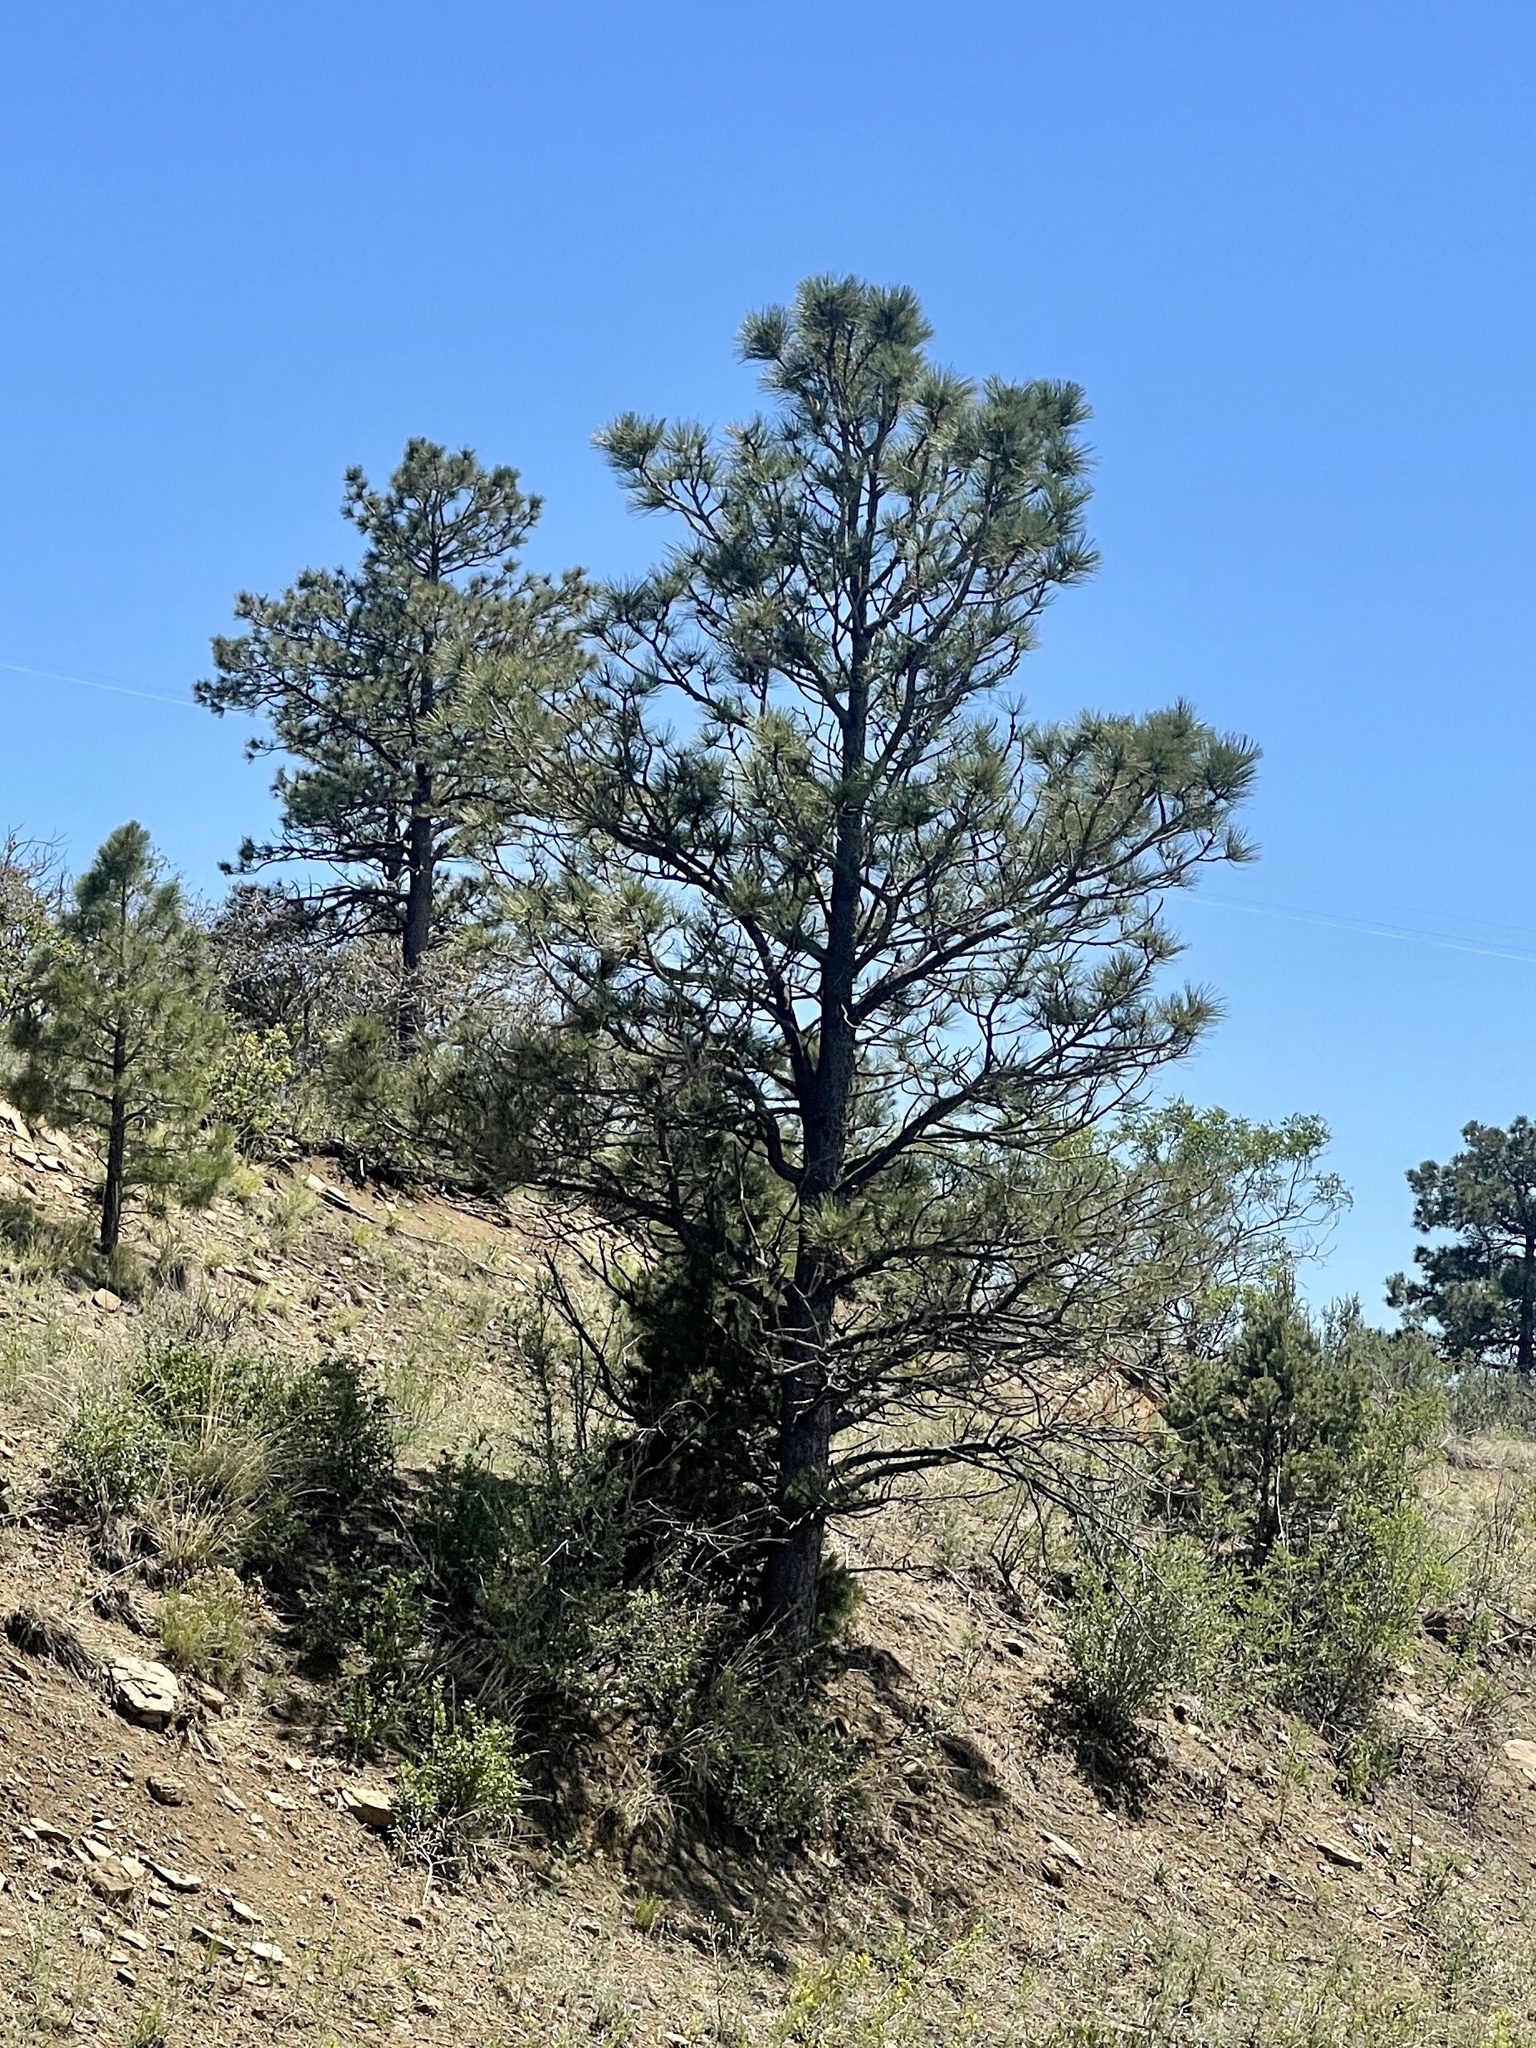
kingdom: Plantae
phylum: Tracheophyta
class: Pinopsida
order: Pinales
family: Pinaceae
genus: Pinus
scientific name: Pinus ponderosa
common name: Western yellow-pine
